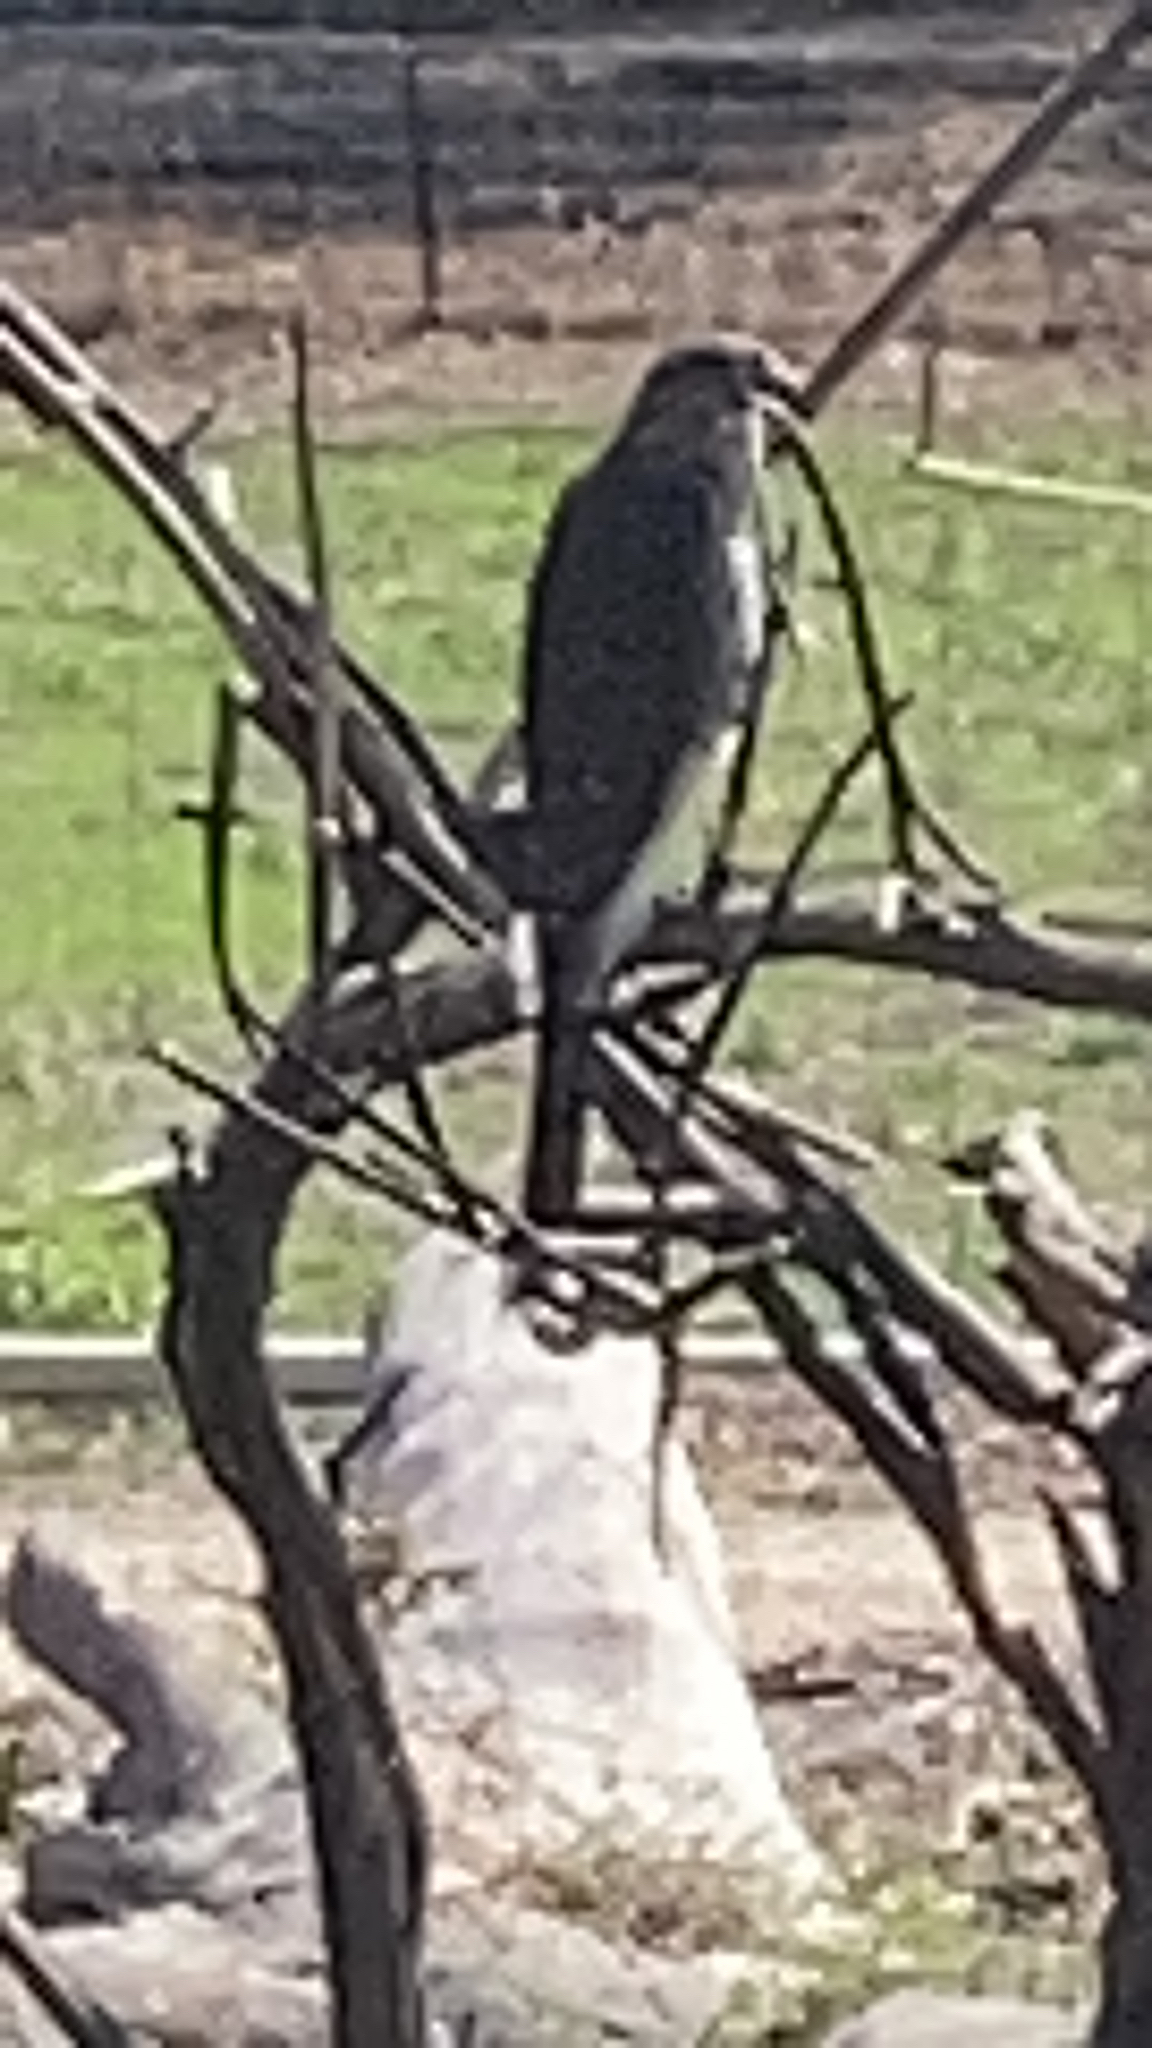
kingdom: Animalia
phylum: Chordata
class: Aves
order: Accipitriformes
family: Accipitridae
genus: Accipiter
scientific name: Accipiter cooperii
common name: Cooper's hawk
